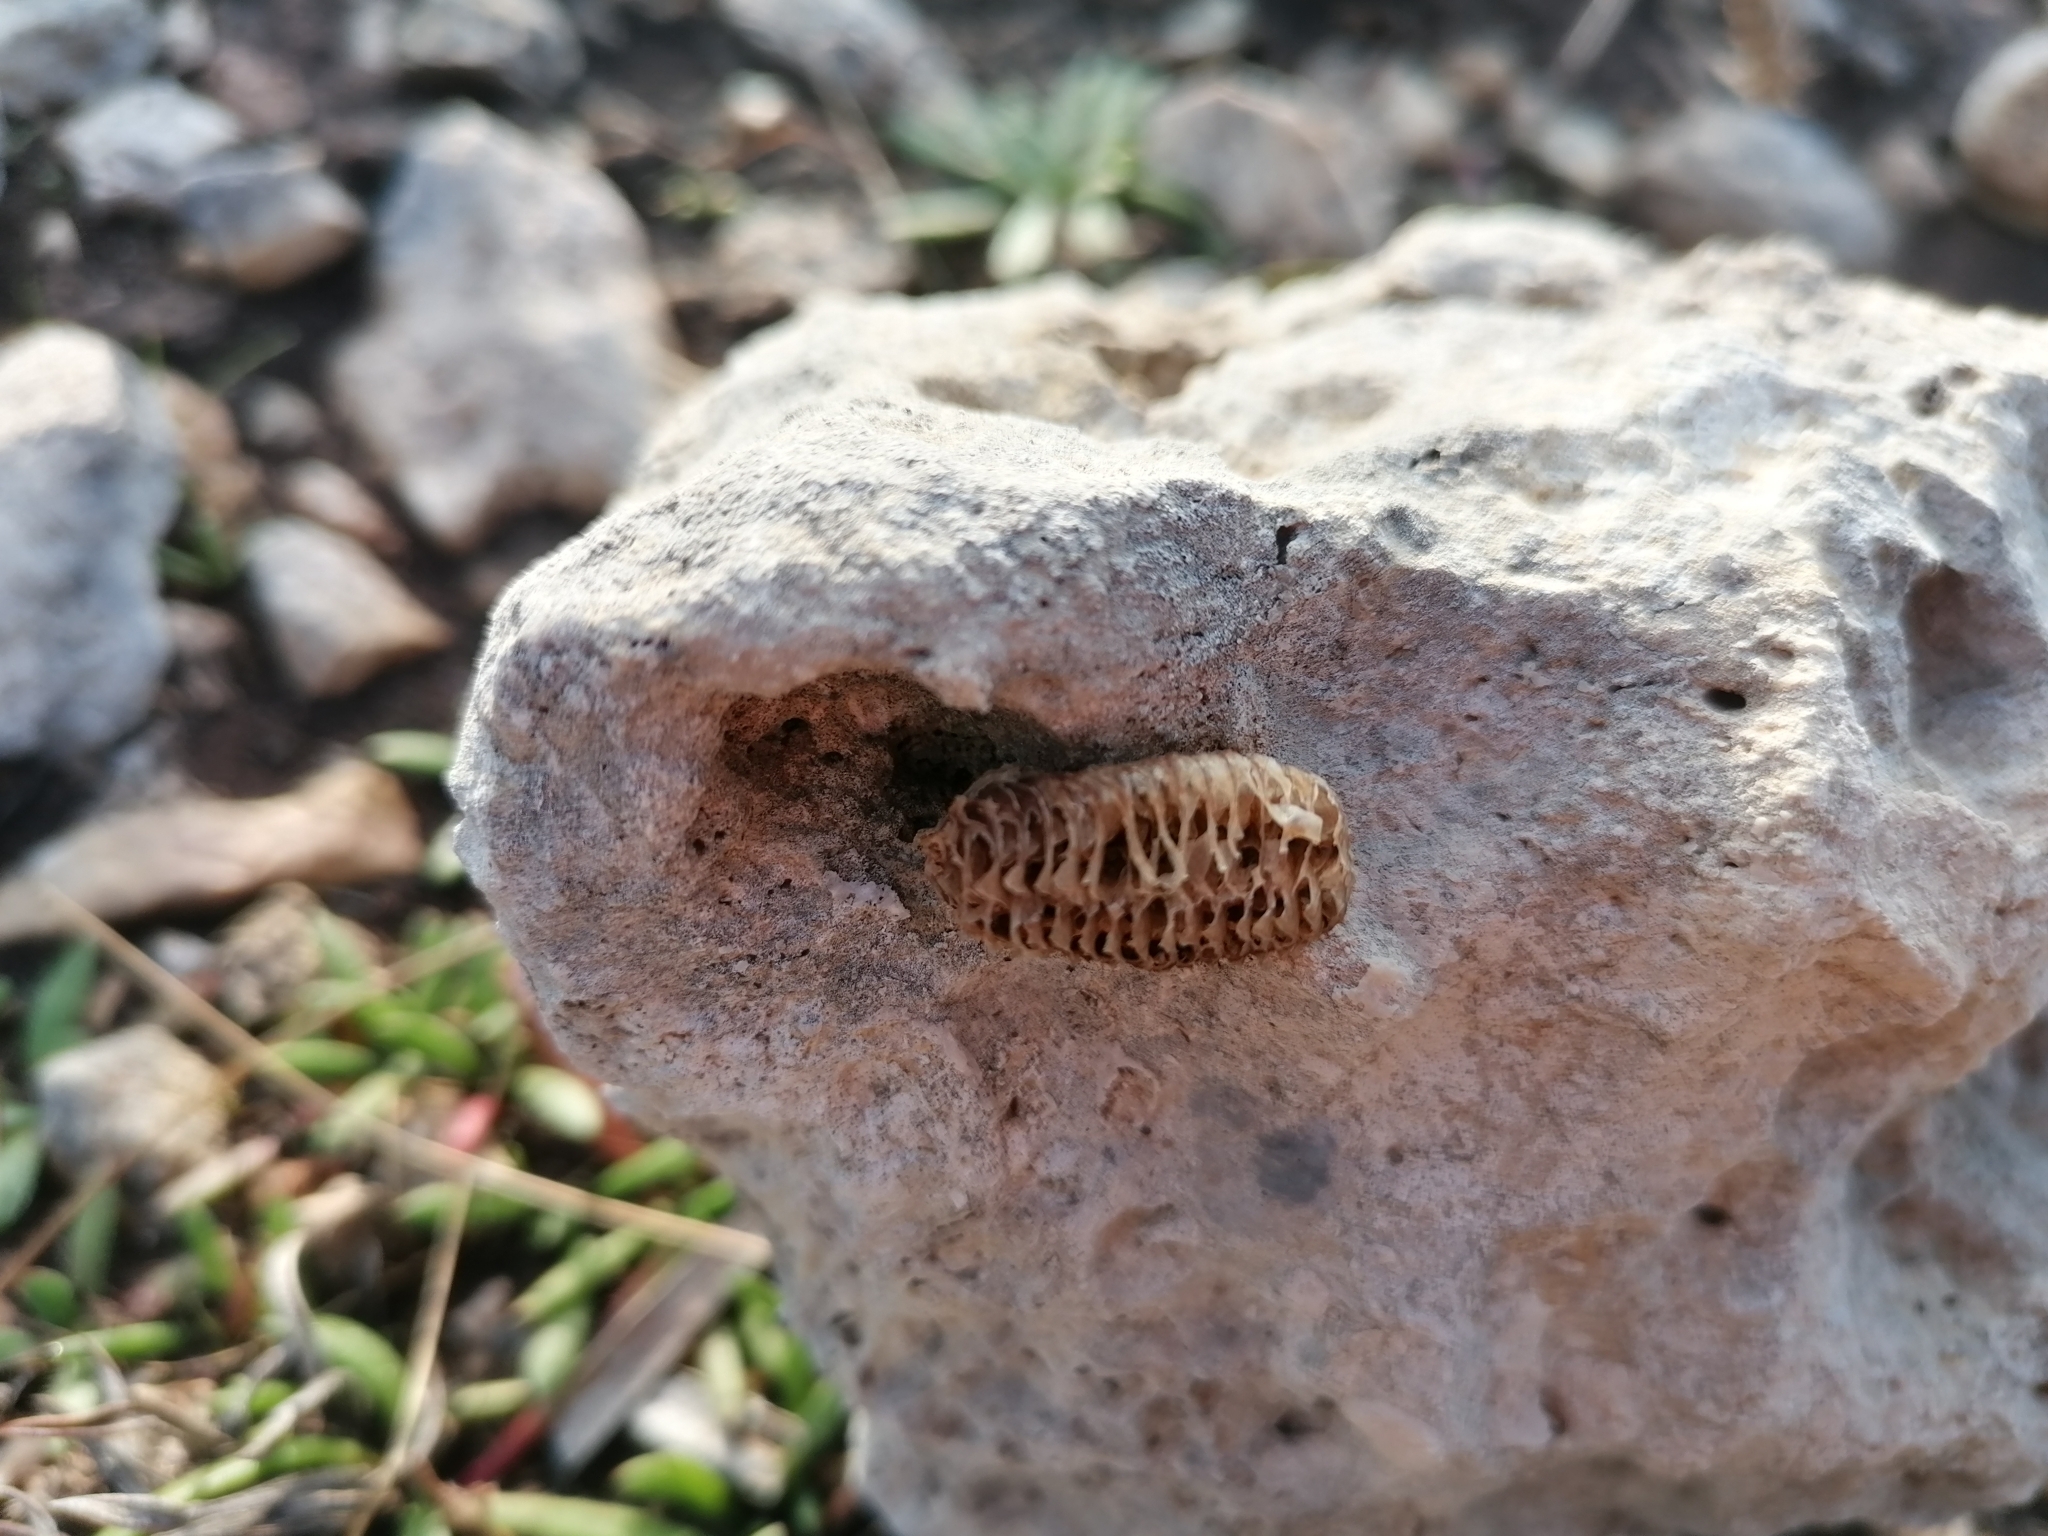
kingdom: Animalia
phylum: Arthropoda
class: Insecta
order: Mantodea
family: Mantidae
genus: Mantis
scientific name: Mantis religiosa
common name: Praying mantis
